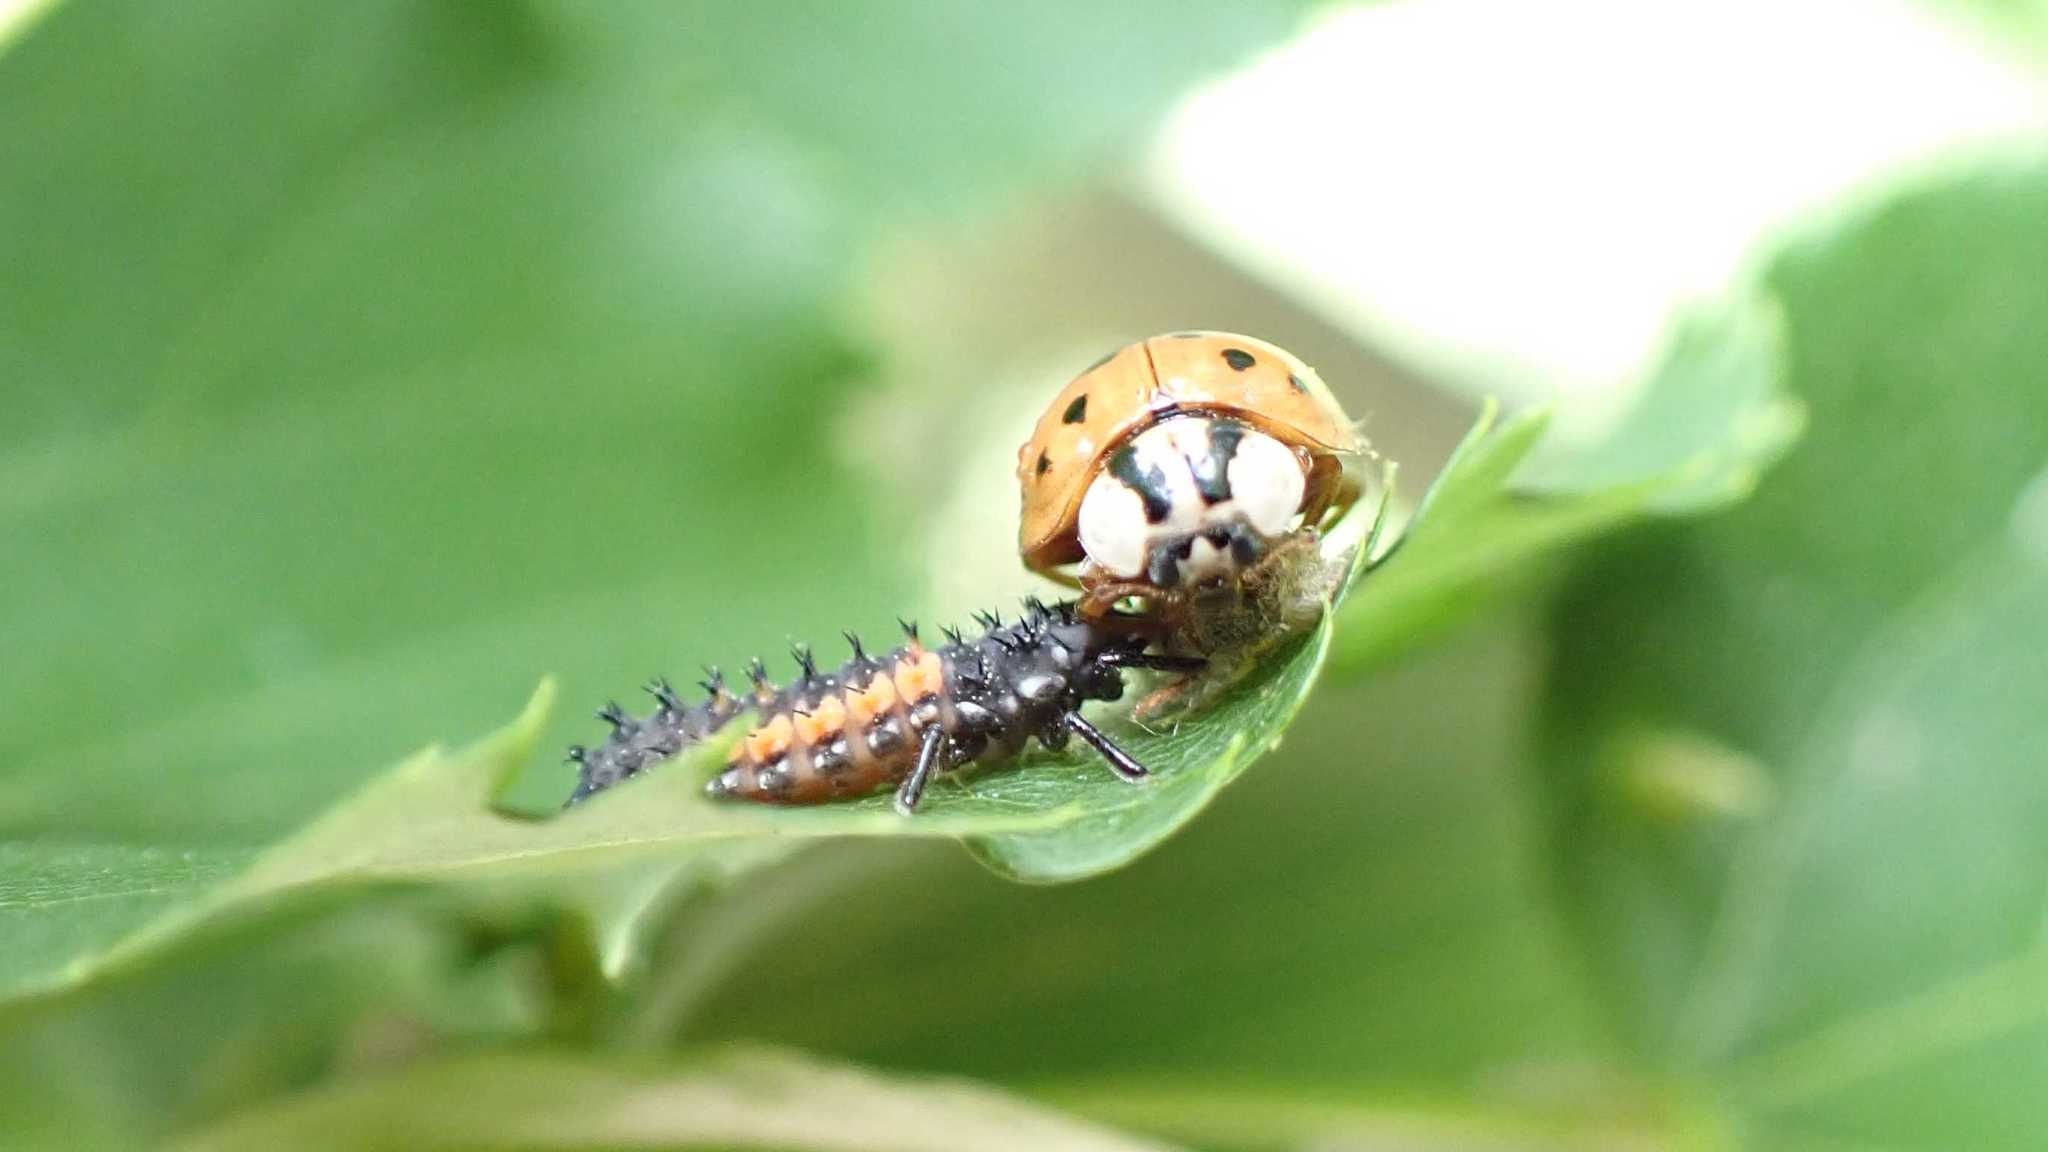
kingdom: Animalia
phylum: Arthropoda
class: Insecta
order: Coleoptera
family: Coccinellidae
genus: Harmonia
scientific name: Harmonia axyridis
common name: Harlequin ladybird
